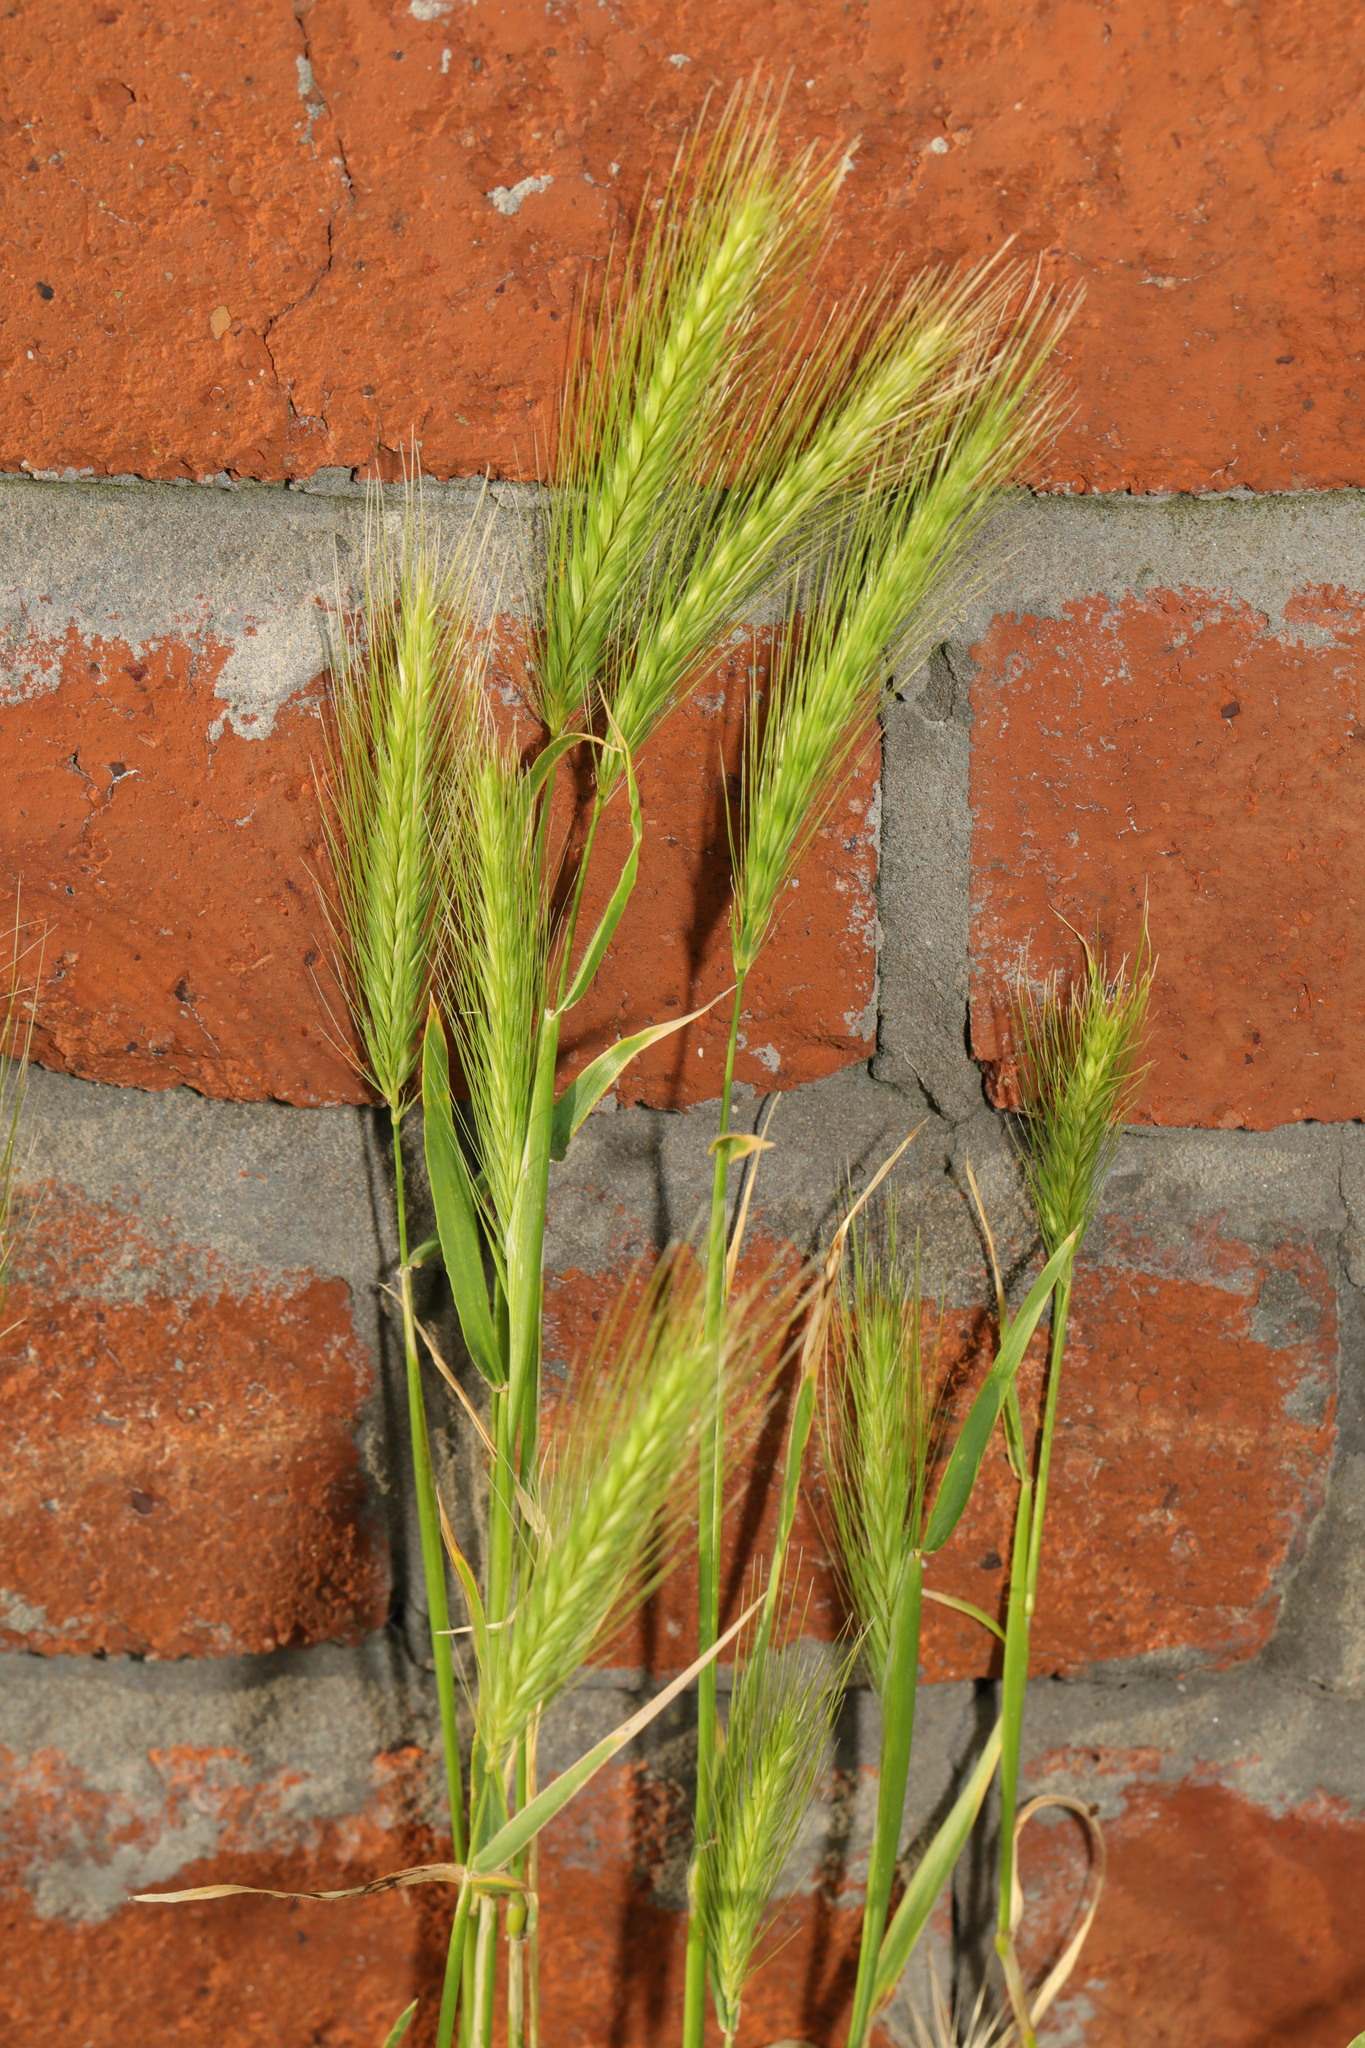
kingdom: Plantae
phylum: Tracheophyta
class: Liliopsida
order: Poales
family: Poaceae
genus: Hordeum
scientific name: Hordeum murinum
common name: Wall barley
